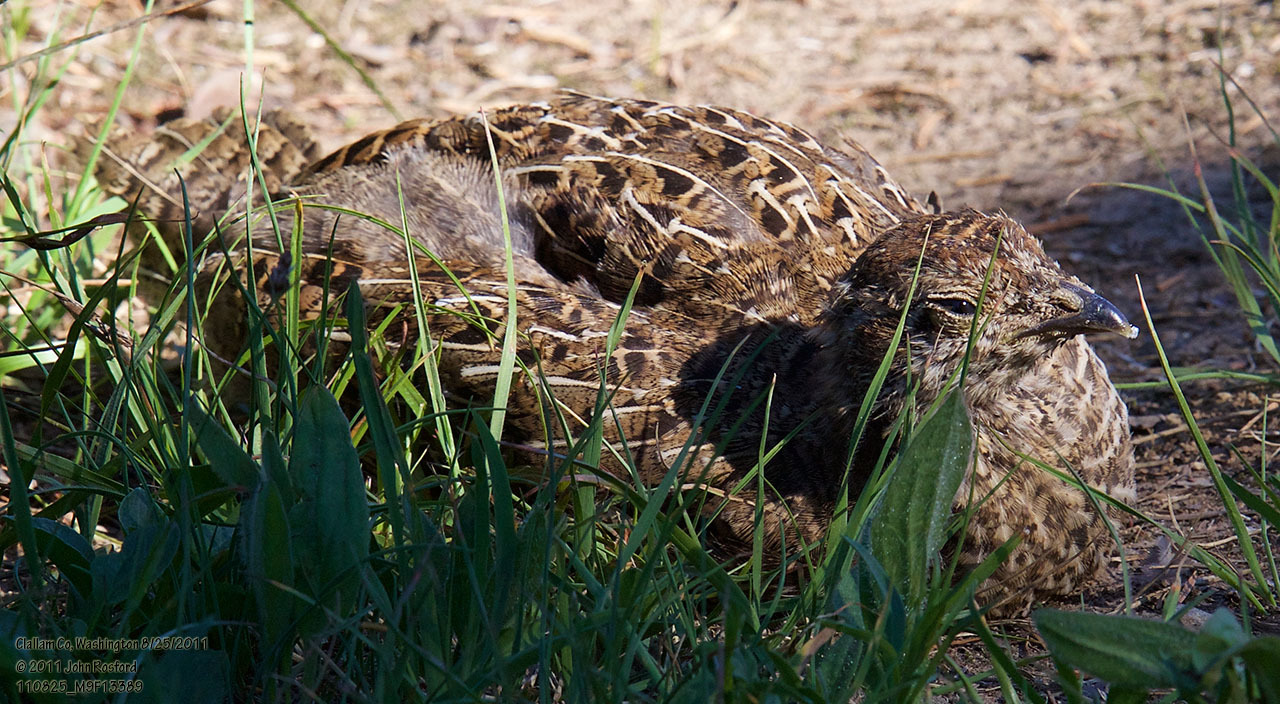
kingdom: Animalia
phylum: Chordata
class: Aves
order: Galliformes
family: Phasianidae
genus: Dendragapus
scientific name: Dendragapus fuliginosus
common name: Sooty grouse
